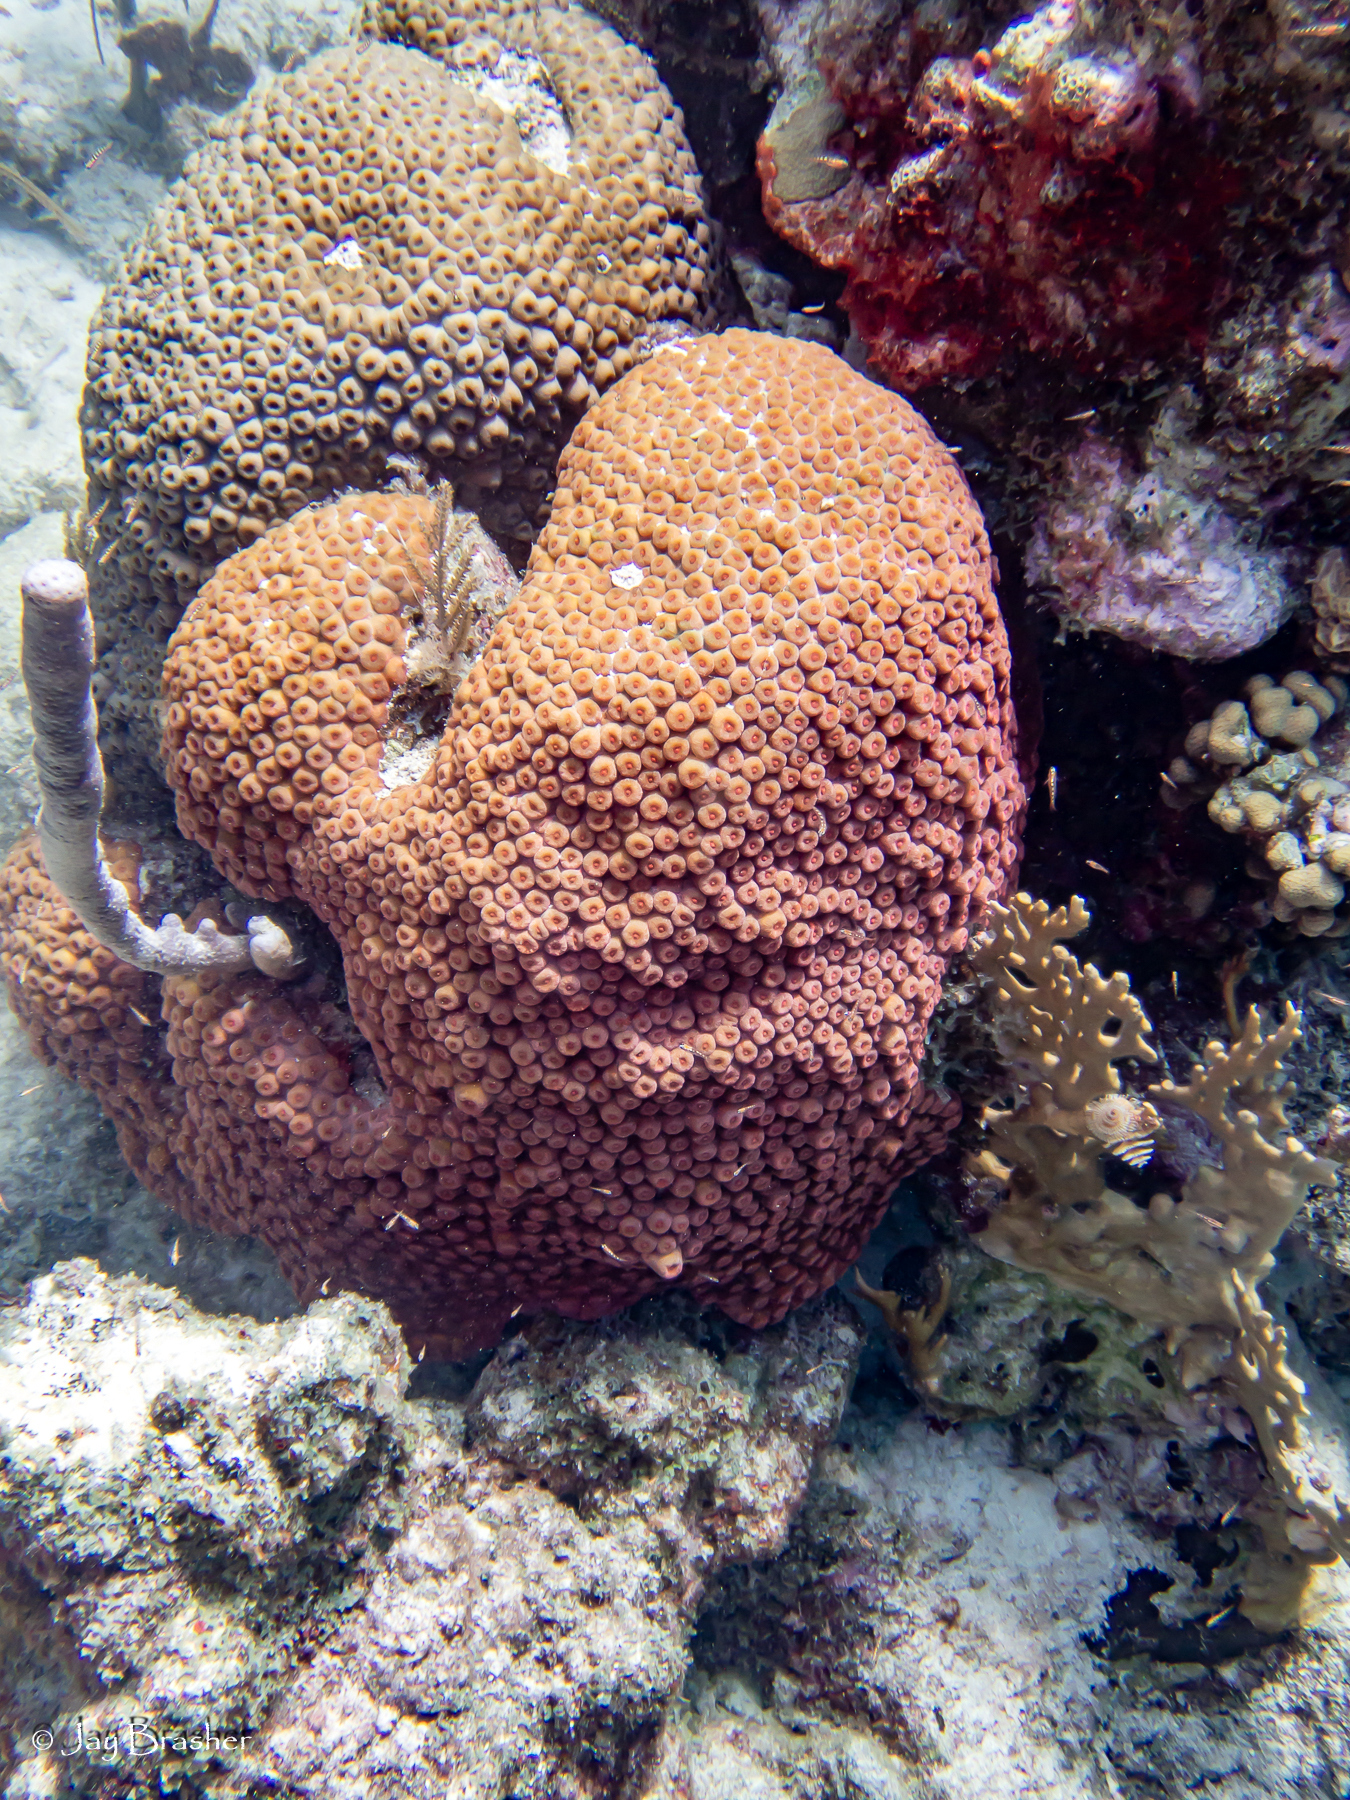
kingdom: Animalia
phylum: Cnidaria
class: Hydrozoa
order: Anthoathecata
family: Milleporidae
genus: Millepora
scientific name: Millepora alcicornis
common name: Branching fire coral
